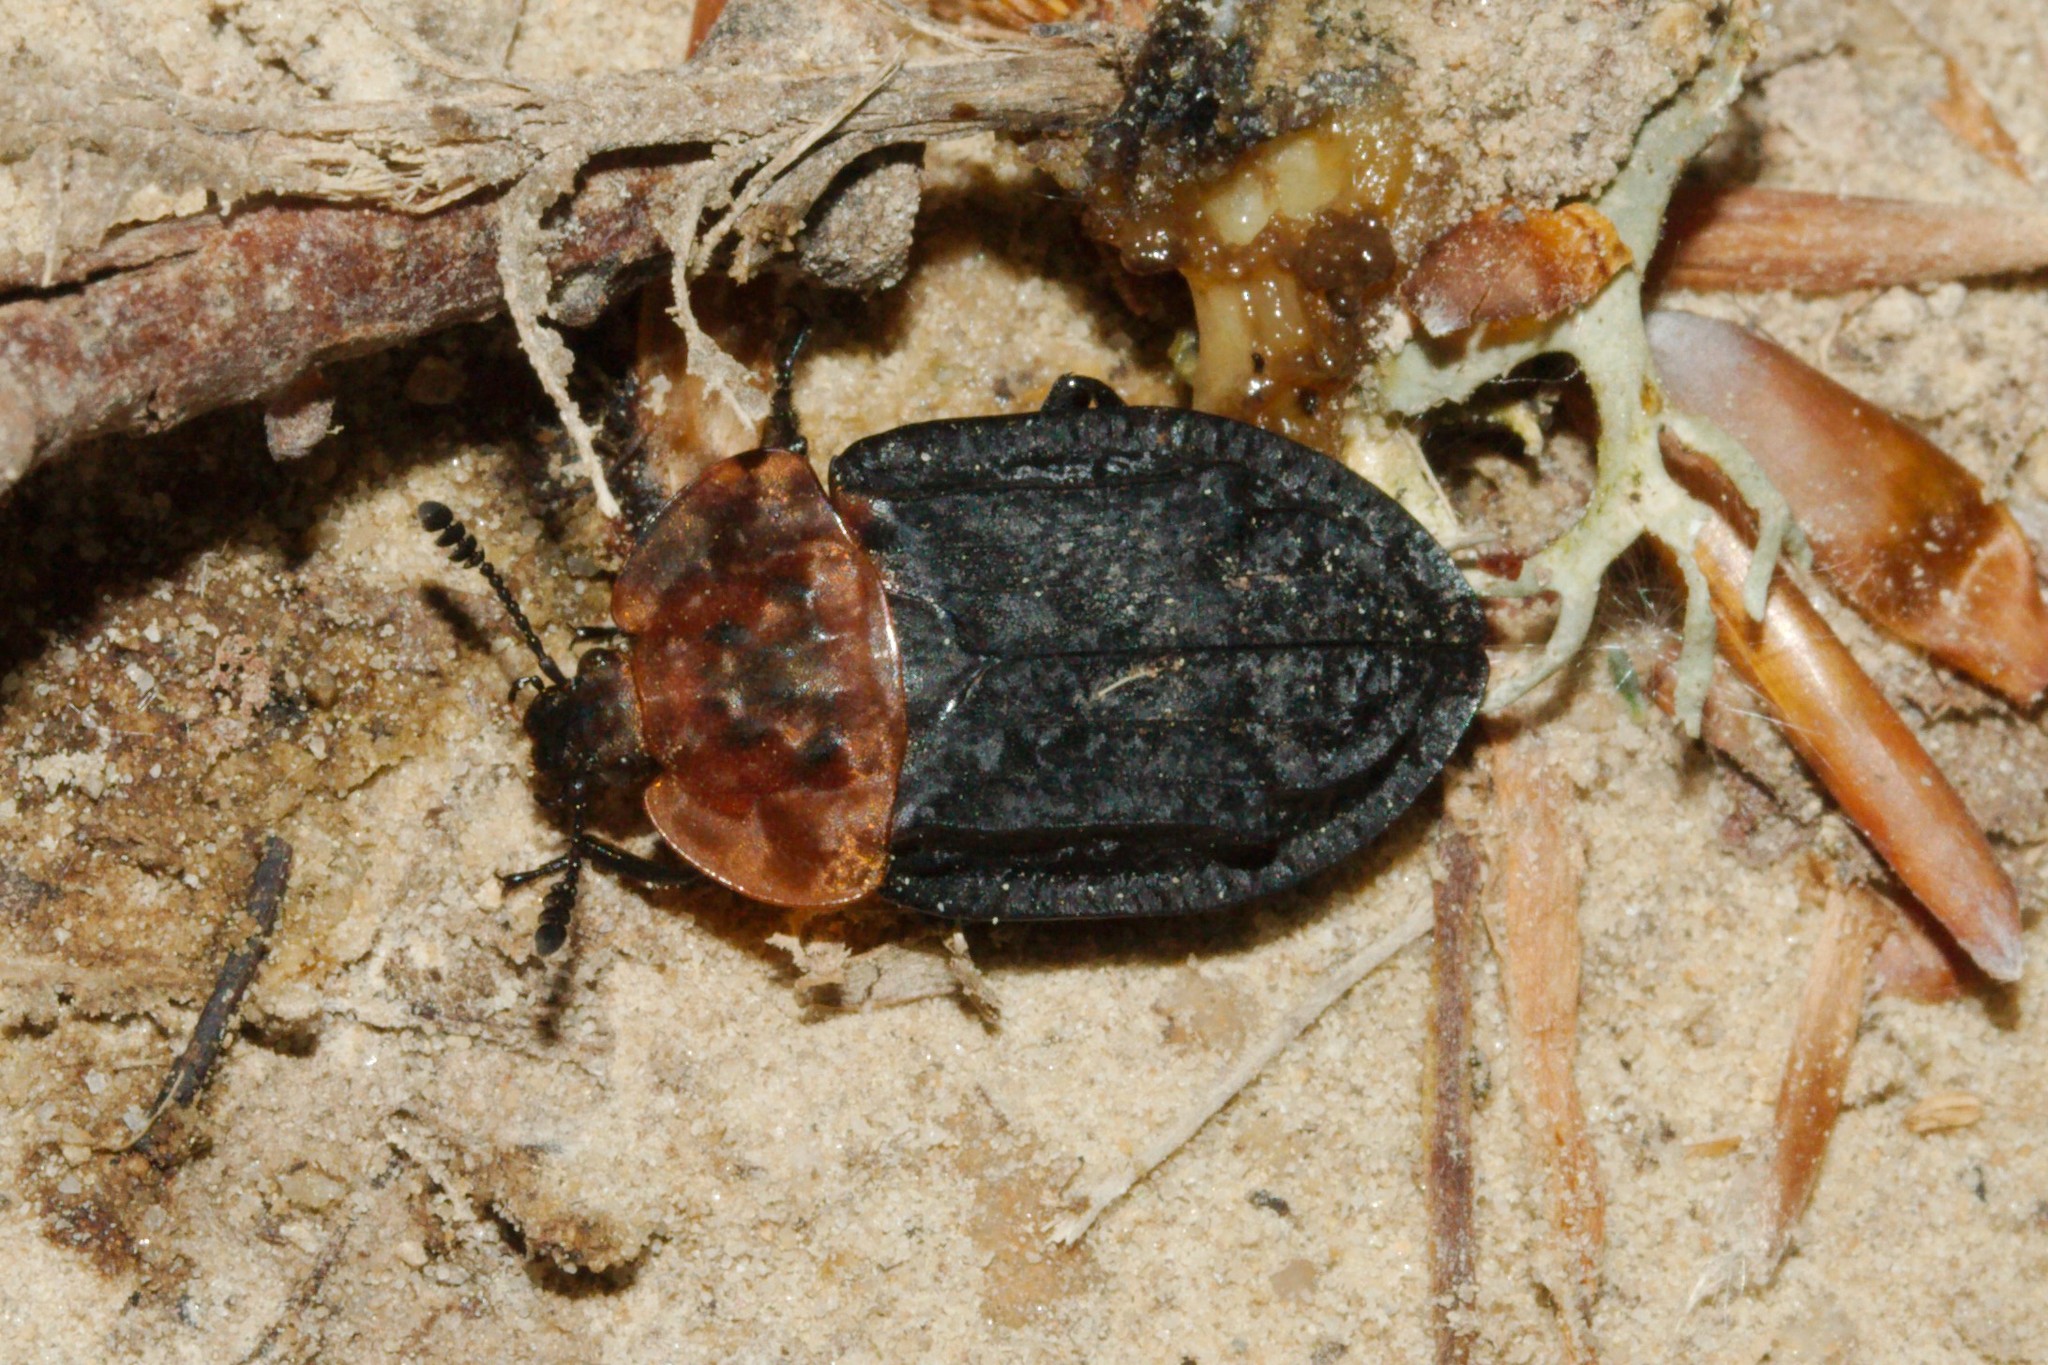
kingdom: Animalia
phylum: Arthropoda
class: Insecta
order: Coleoptera
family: Staphylinidae
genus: Oiceoptoma
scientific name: Oiceoptoma thoracicum
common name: Red-breasted carrion beetle
